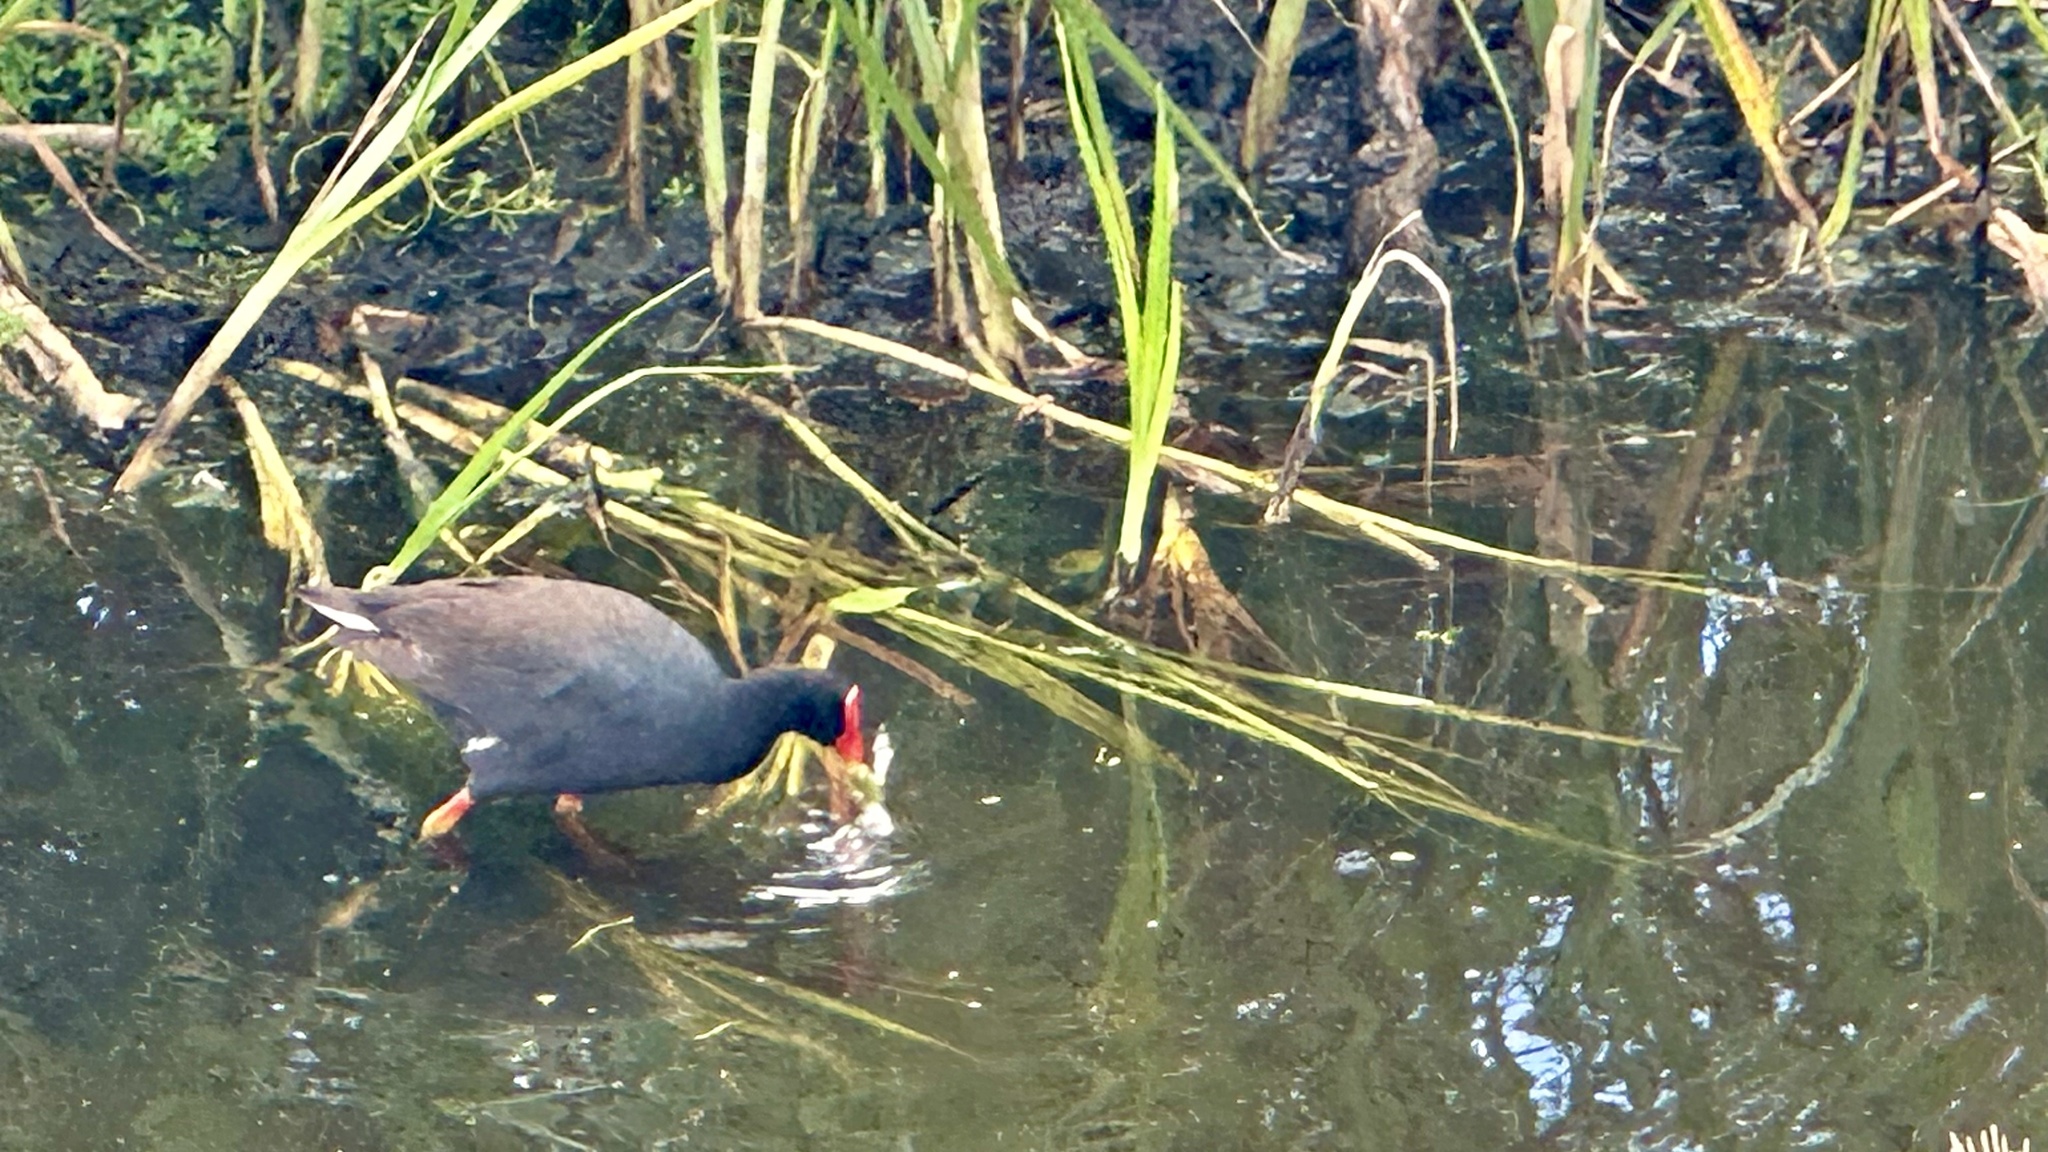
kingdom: Animalia
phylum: Chordata
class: Aves
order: Gruiformes
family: Rallidae
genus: Gallinula
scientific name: Gallinula chloropus
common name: Common moorhen
